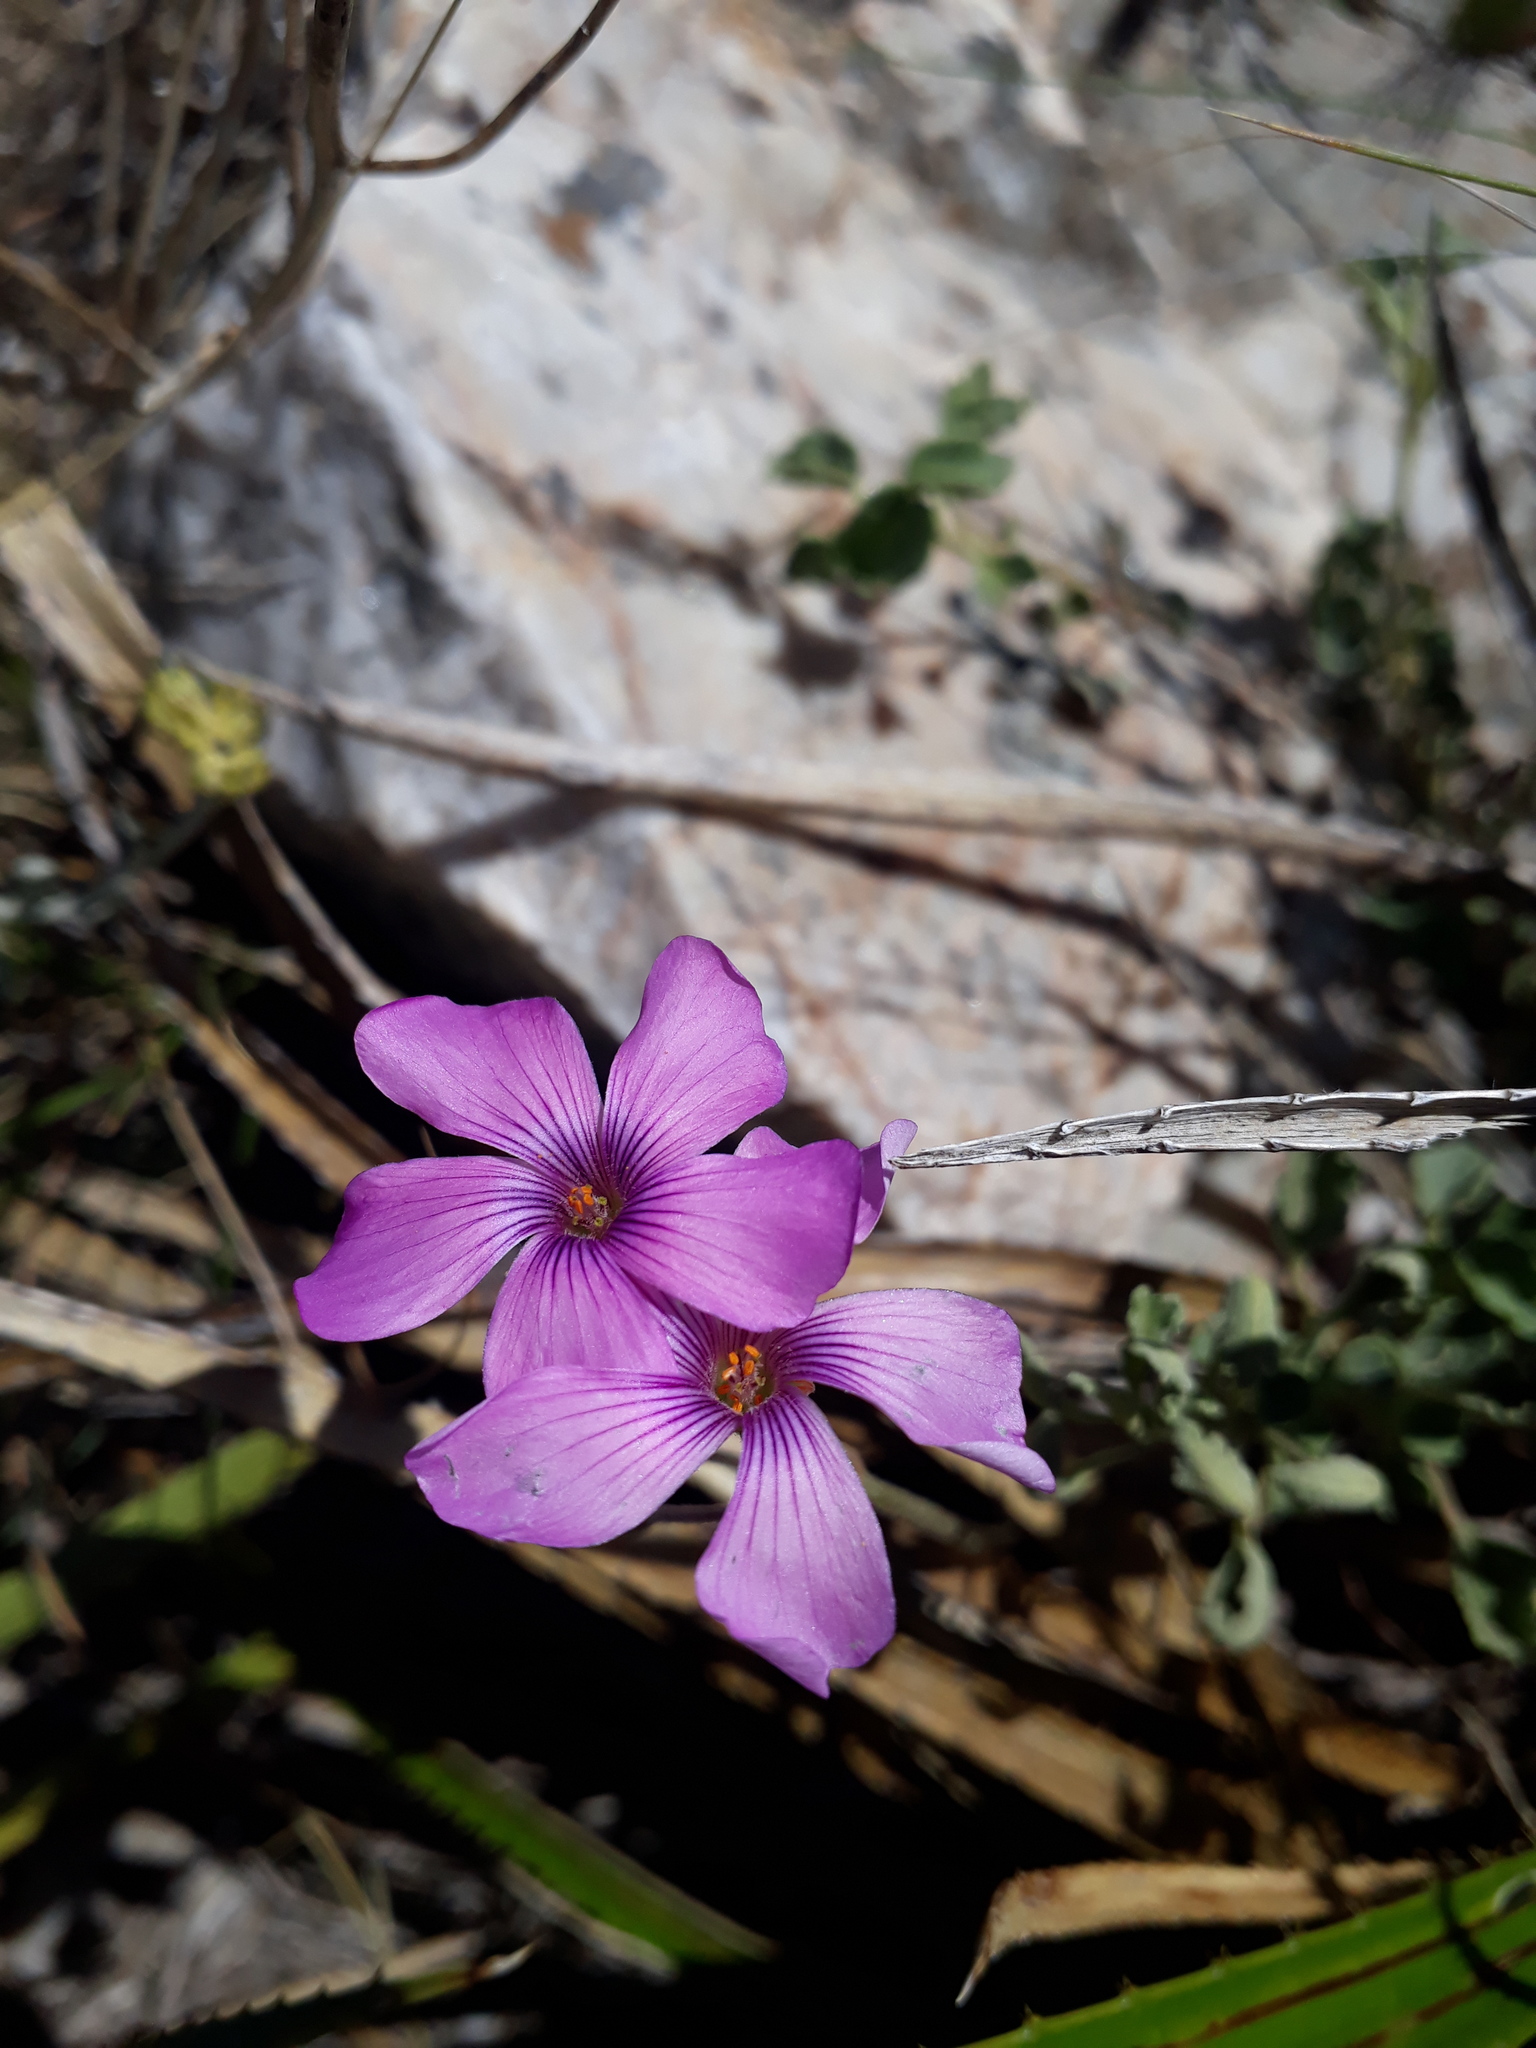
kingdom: Plantae
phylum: Tracheophyta
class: Magnoliopsida
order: Oxalidales
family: Oxalidaceae
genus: Oxalis
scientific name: Oxalis articulata
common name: Pink-sorrel
